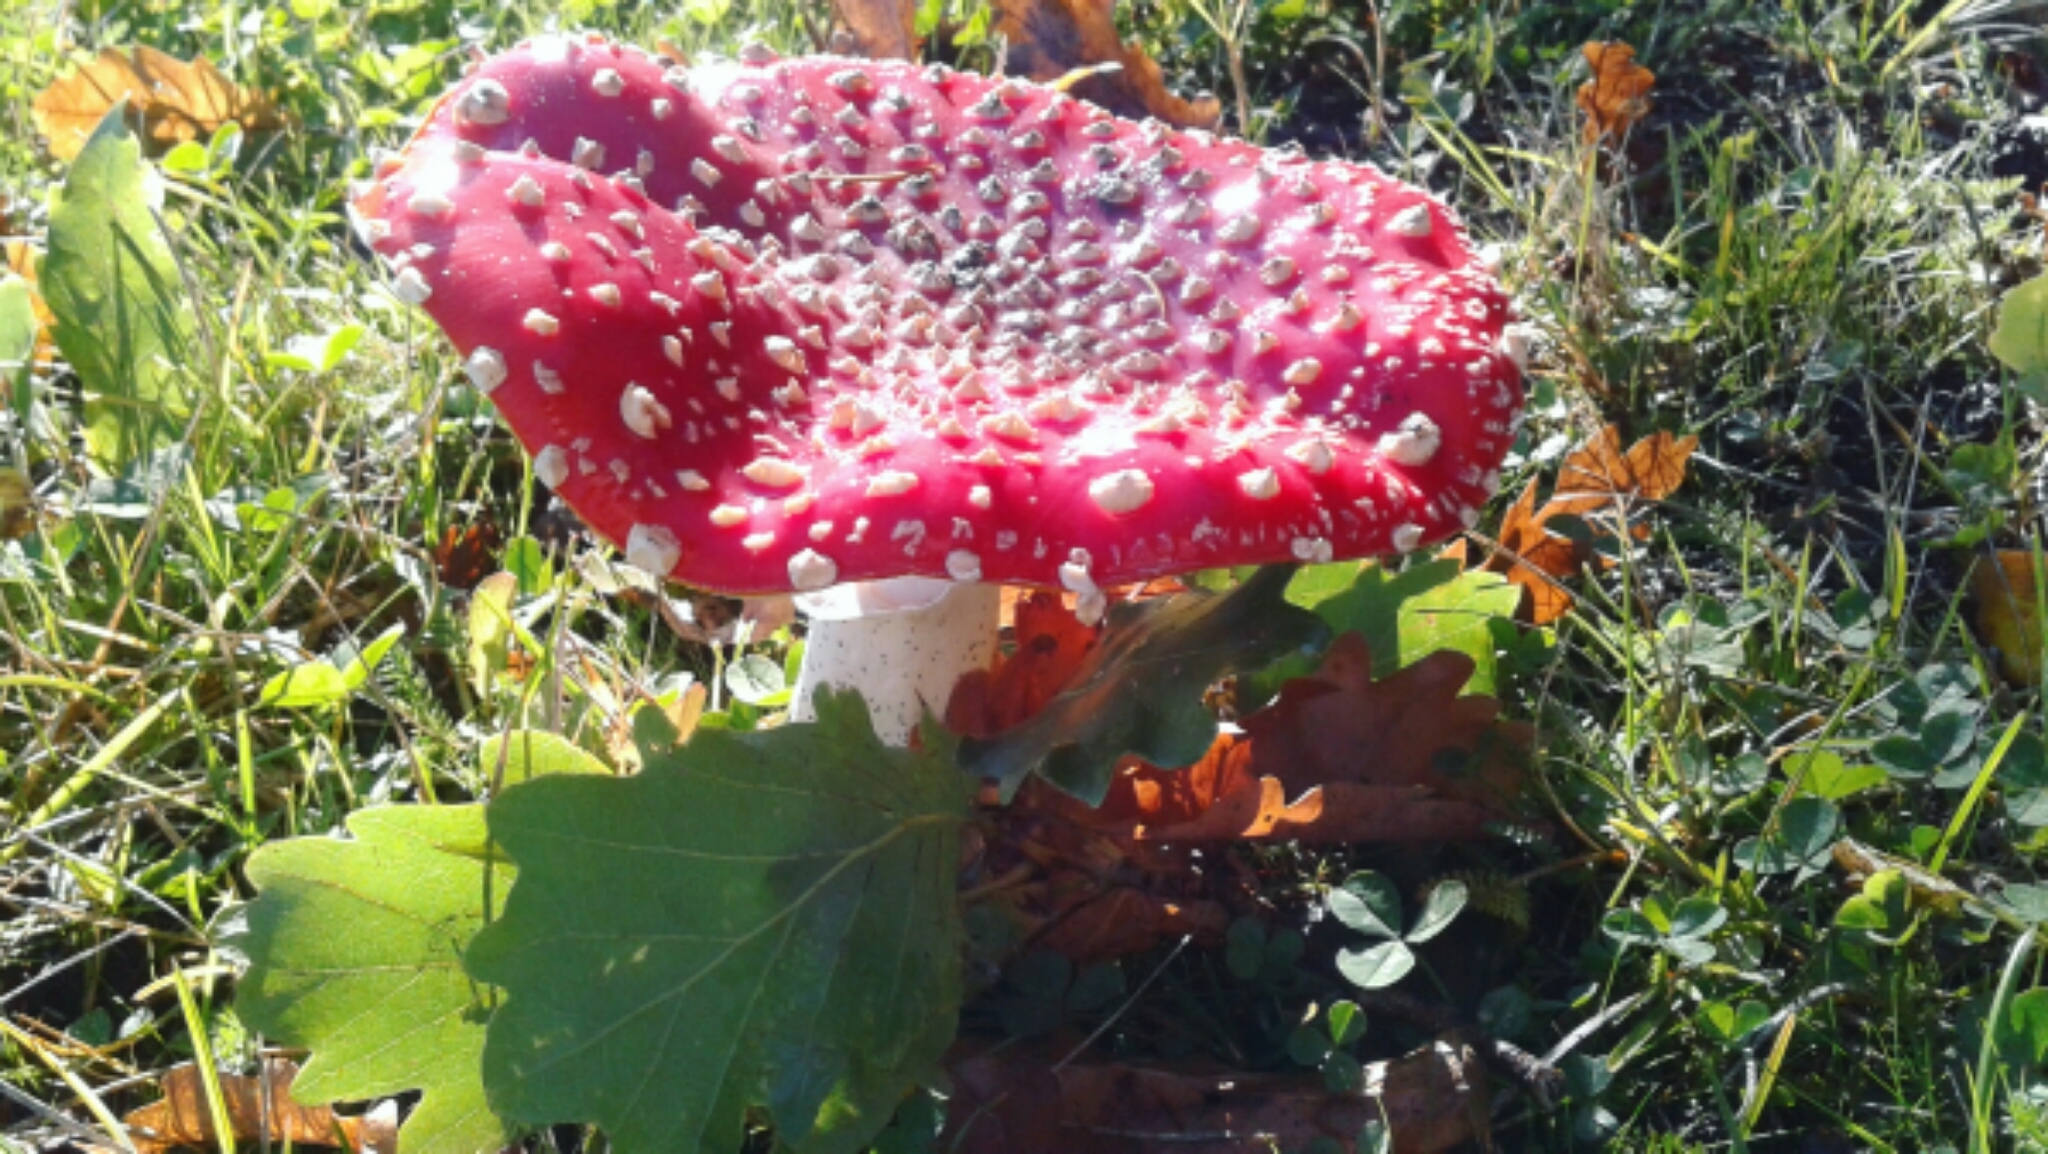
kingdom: Fungi
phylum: Basidiomycota
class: Agaricomycetes
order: Agaricales
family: Amanitaceae
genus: Amanita
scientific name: Amanita muscaria
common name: Fly agaric
